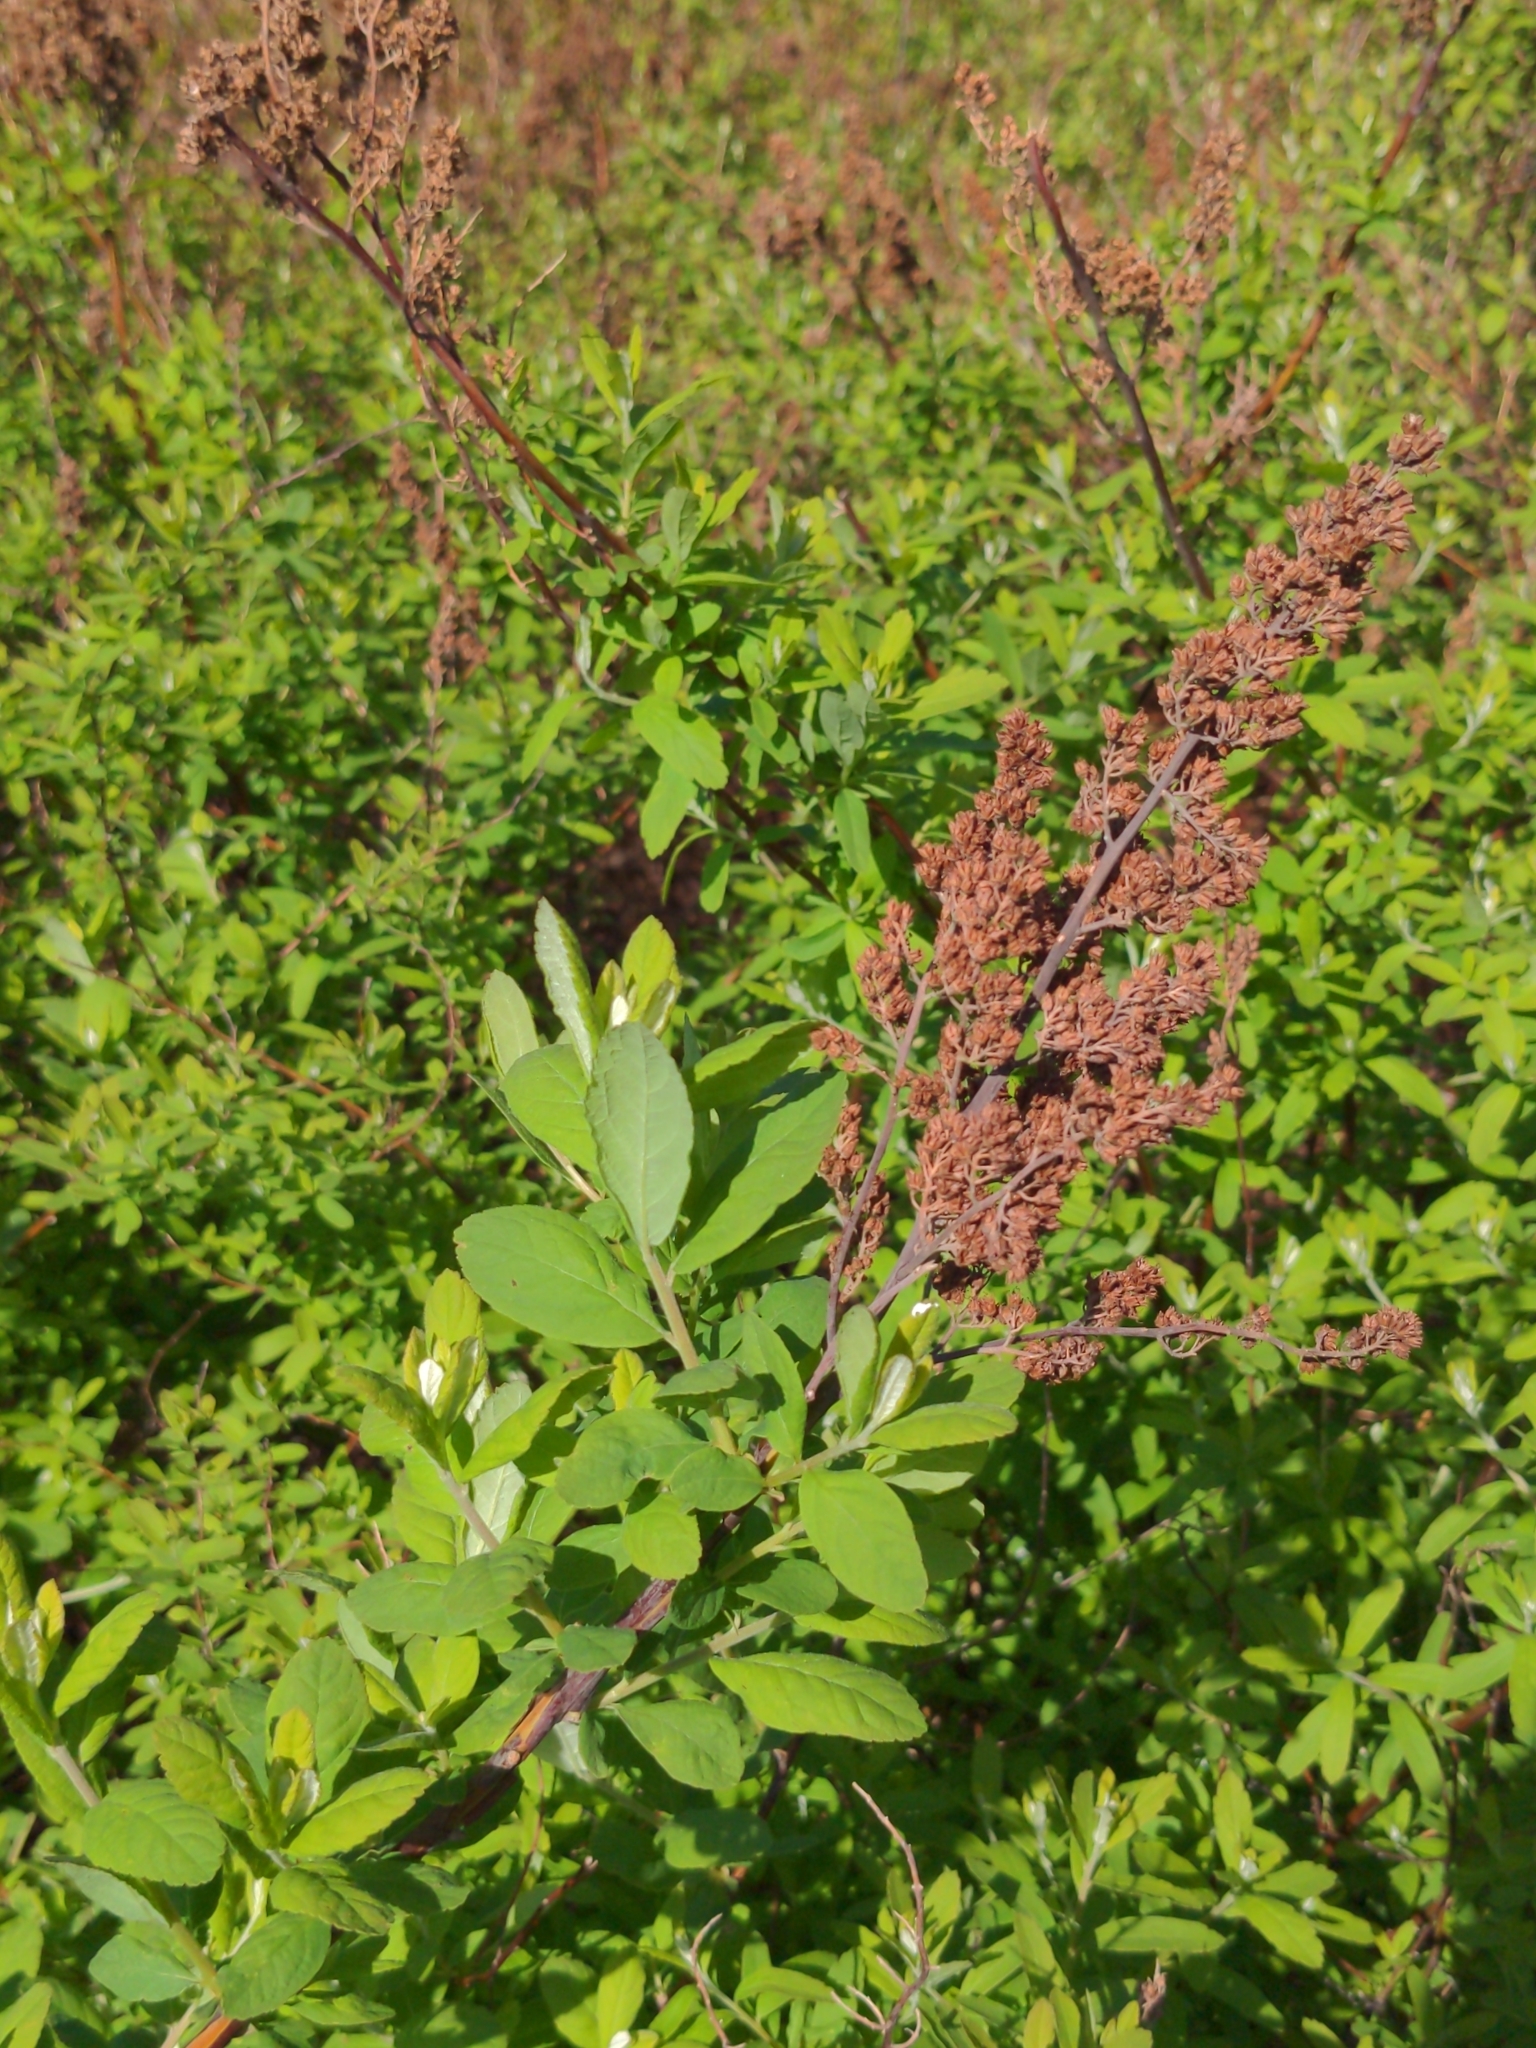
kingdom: Plantae
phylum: Tracheophyta
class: Magnoliopsida
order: Rosales
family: Rosaceae
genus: Spiraea
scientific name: Spiraea douglasii
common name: Steeplebush
